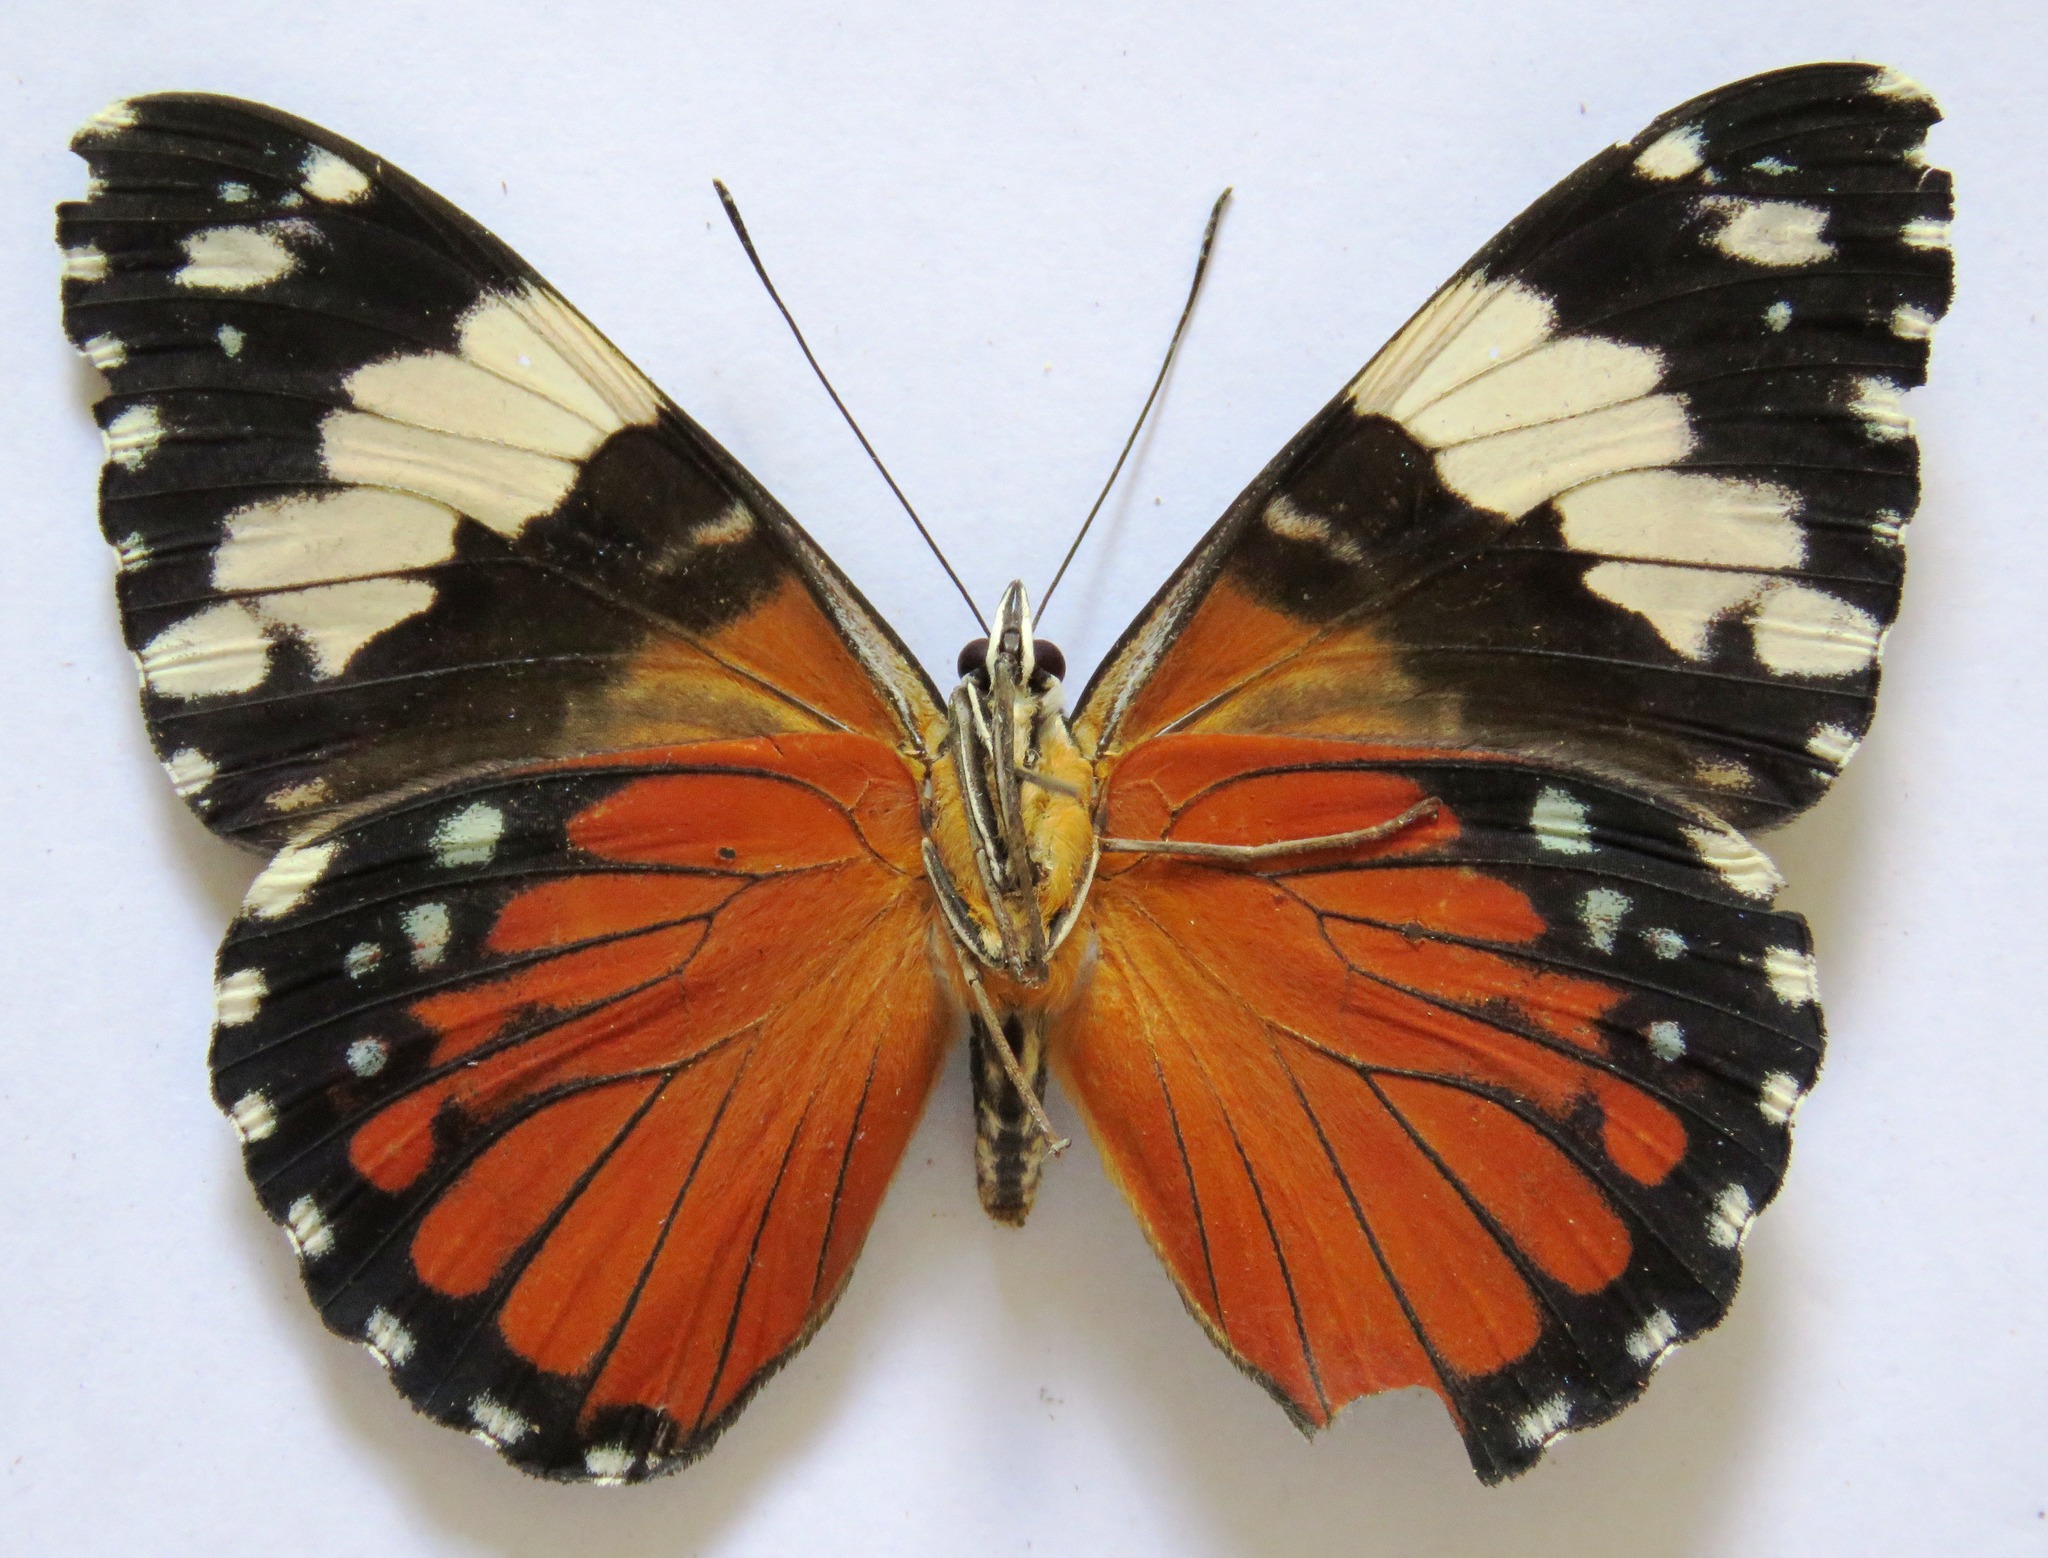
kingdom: Animalia
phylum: Arthropoda
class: Insecta
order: Lepidoptera
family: Nymphalidae
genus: Hamadryas
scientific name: Hamadryas amphinome
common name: Red cracker
